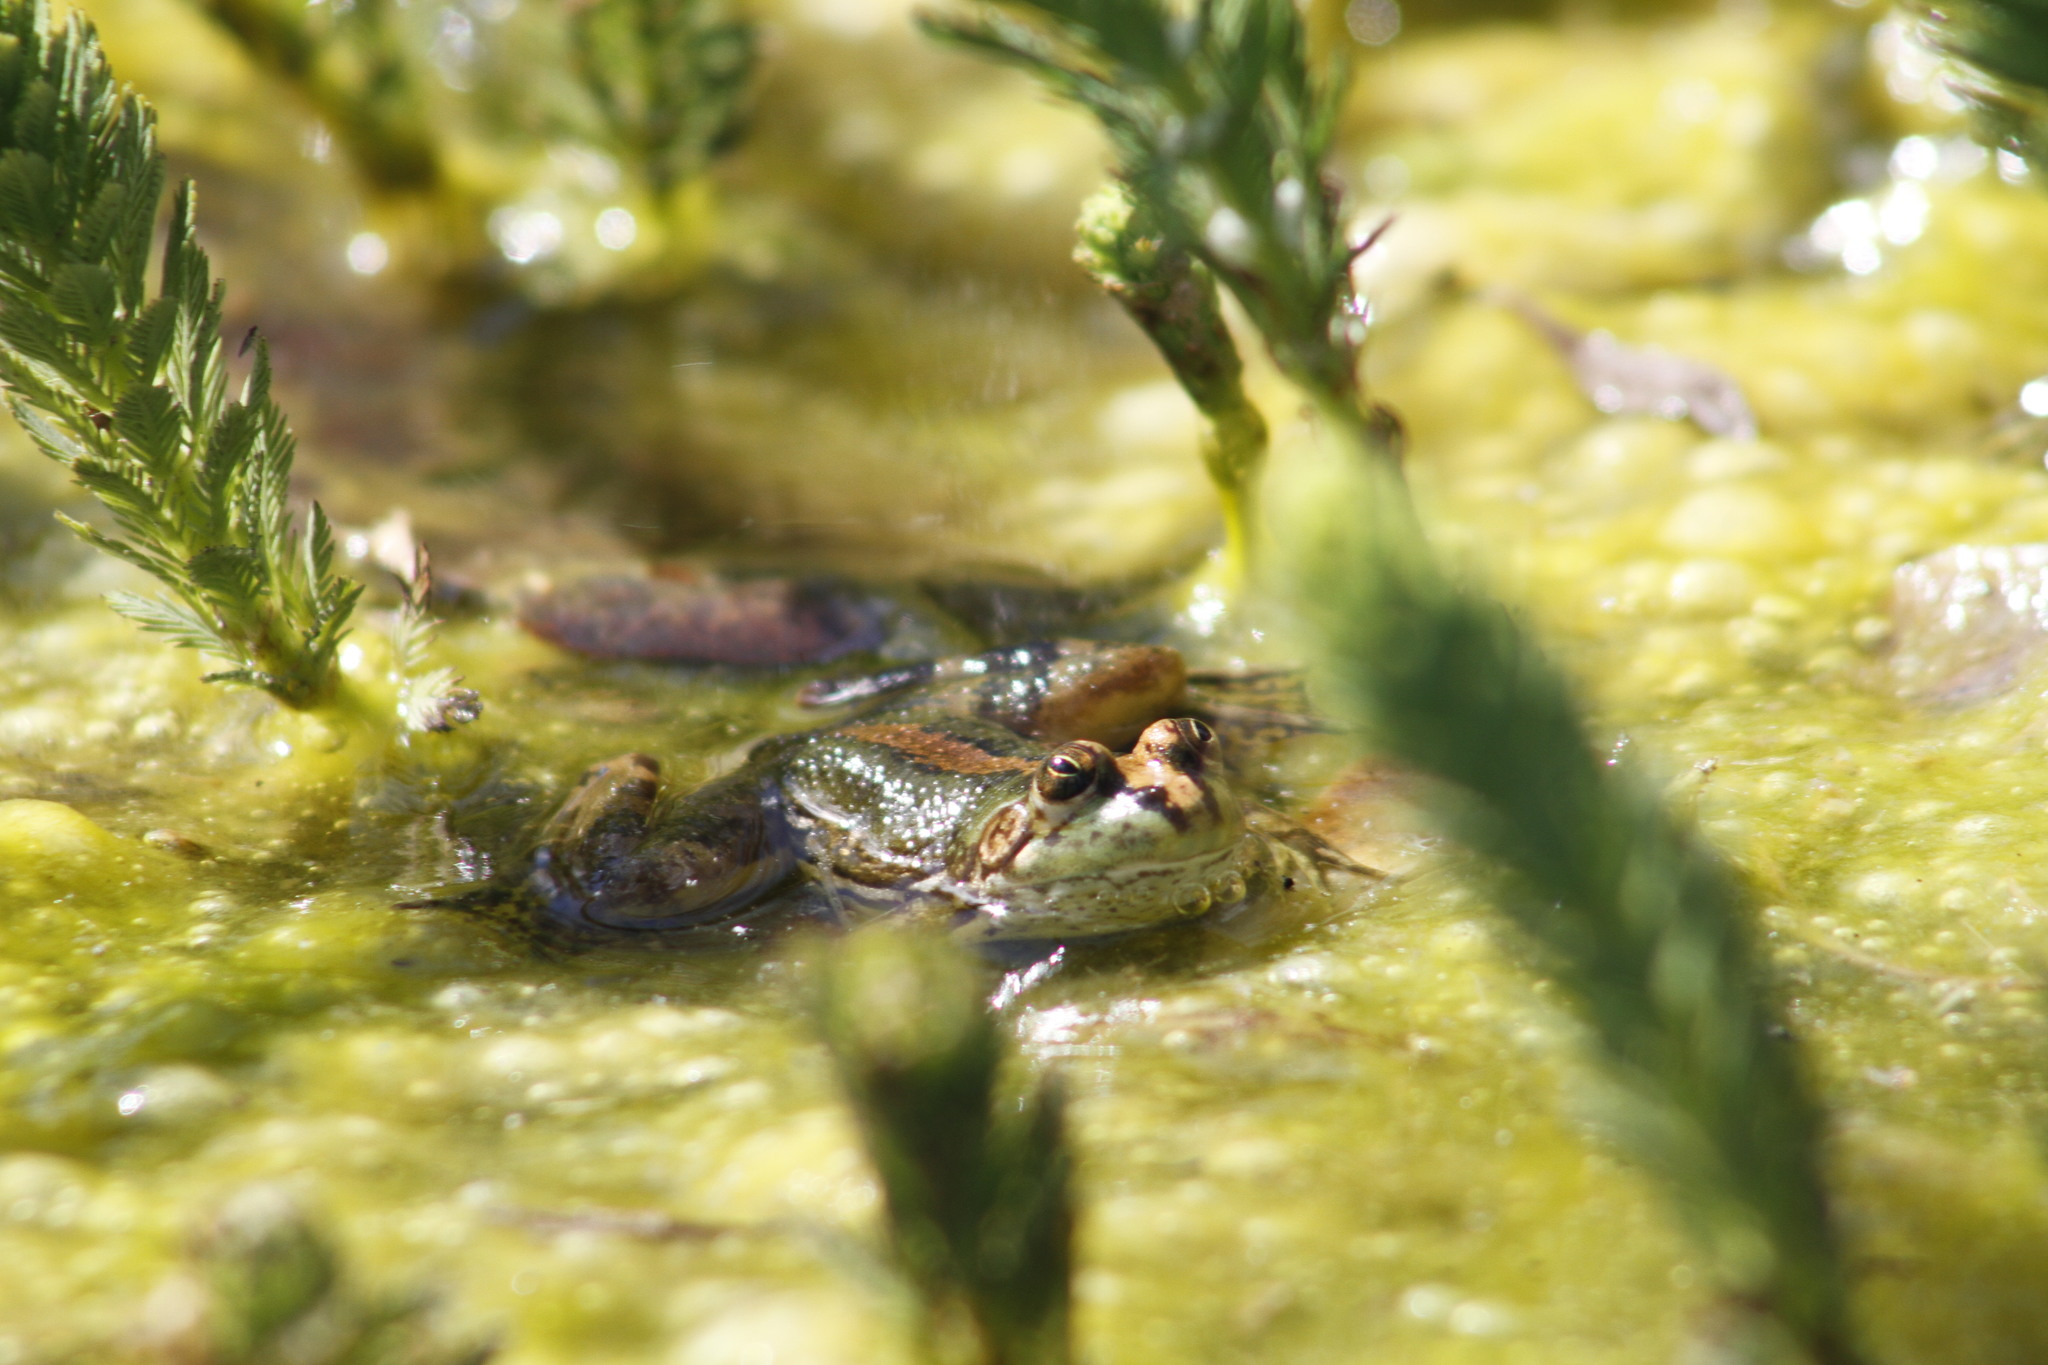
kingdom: Animalia
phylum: Chordata
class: Amphibia
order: Anura
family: Hylidae
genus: Pseudis
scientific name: Pseudis minuta
